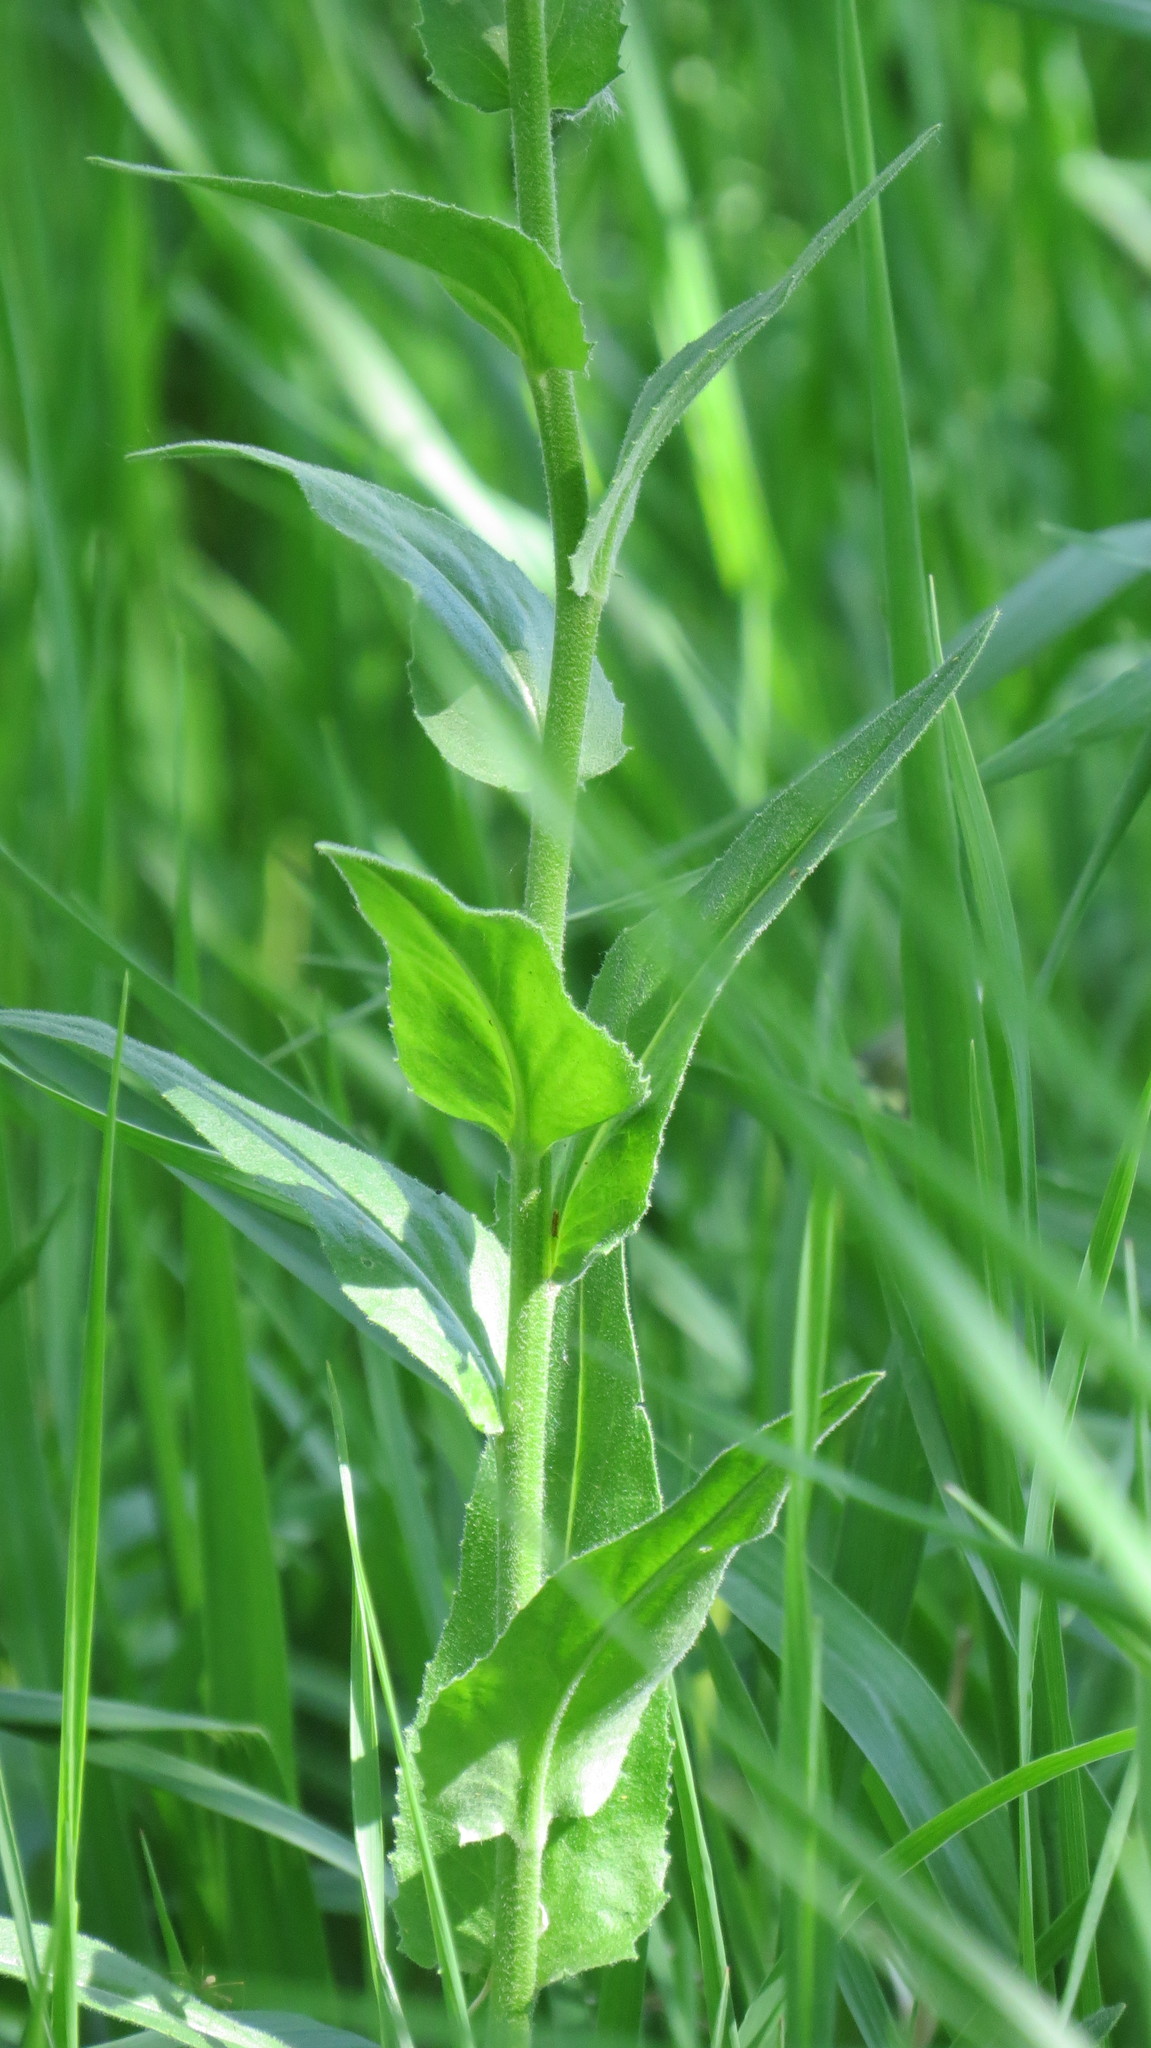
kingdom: Plantae
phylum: Tracheophyta
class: Magnoliopsida
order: Brassicales
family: Brassicaceae
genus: Hesperis
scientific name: Hesperis matronalis
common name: Dame's-violet
